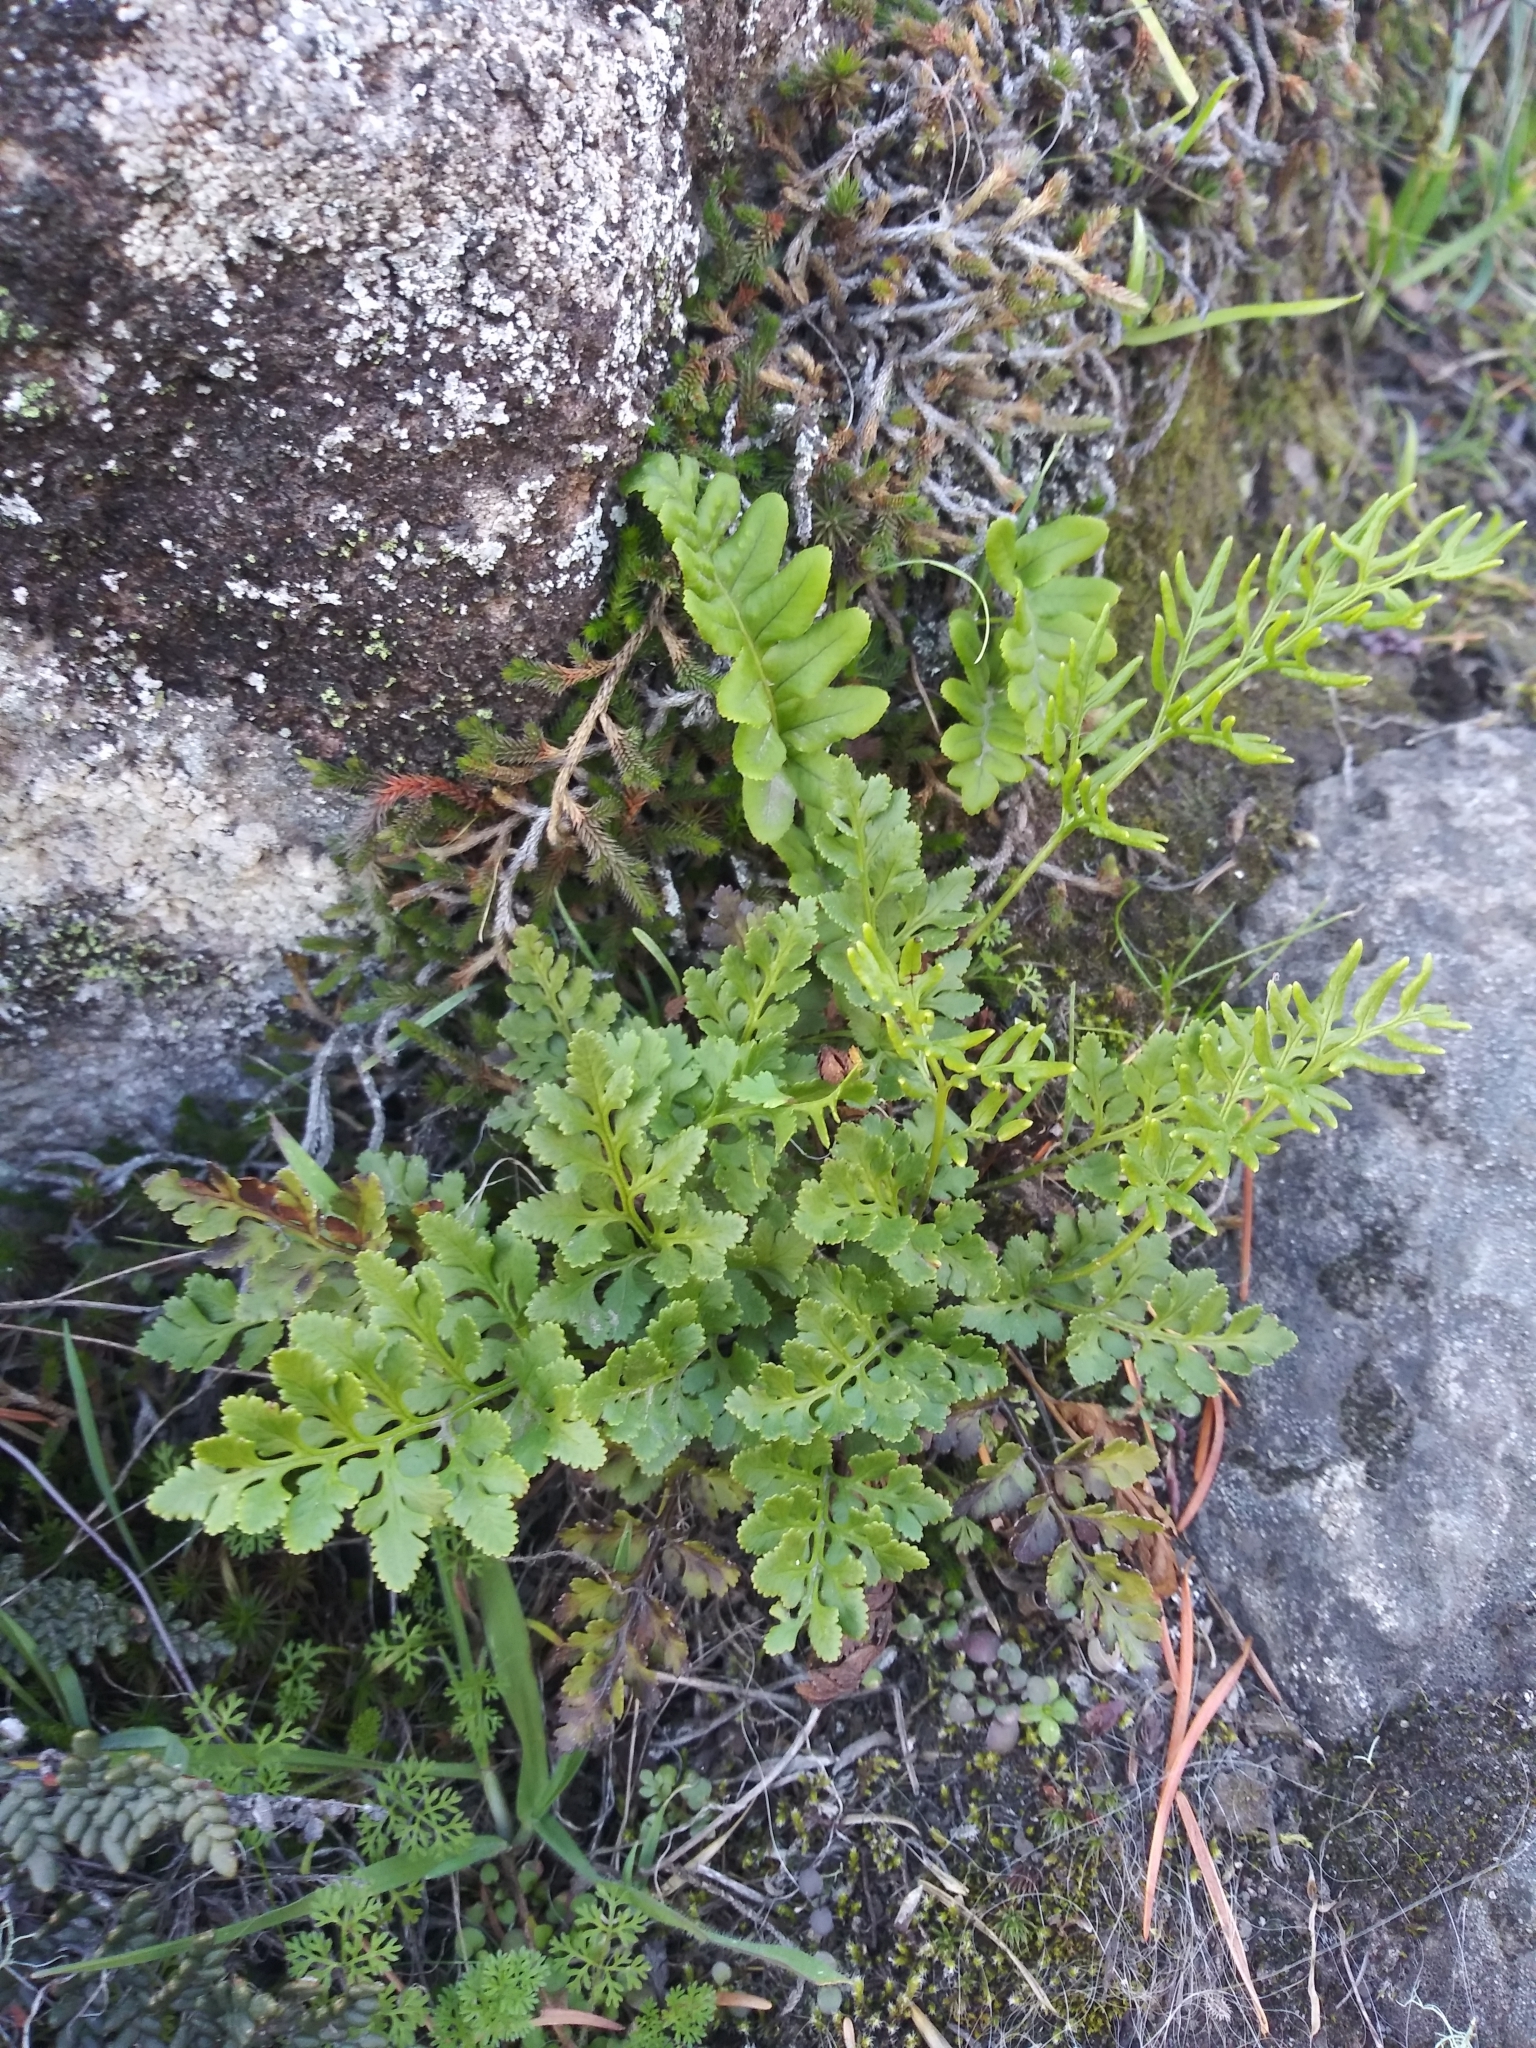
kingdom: Plantae
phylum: Tracheophyta
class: Polypodiopsida
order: Polypodiales
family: Pteridaceae
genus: Cryptogramma
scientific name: Cryptogramma acrostichoides
